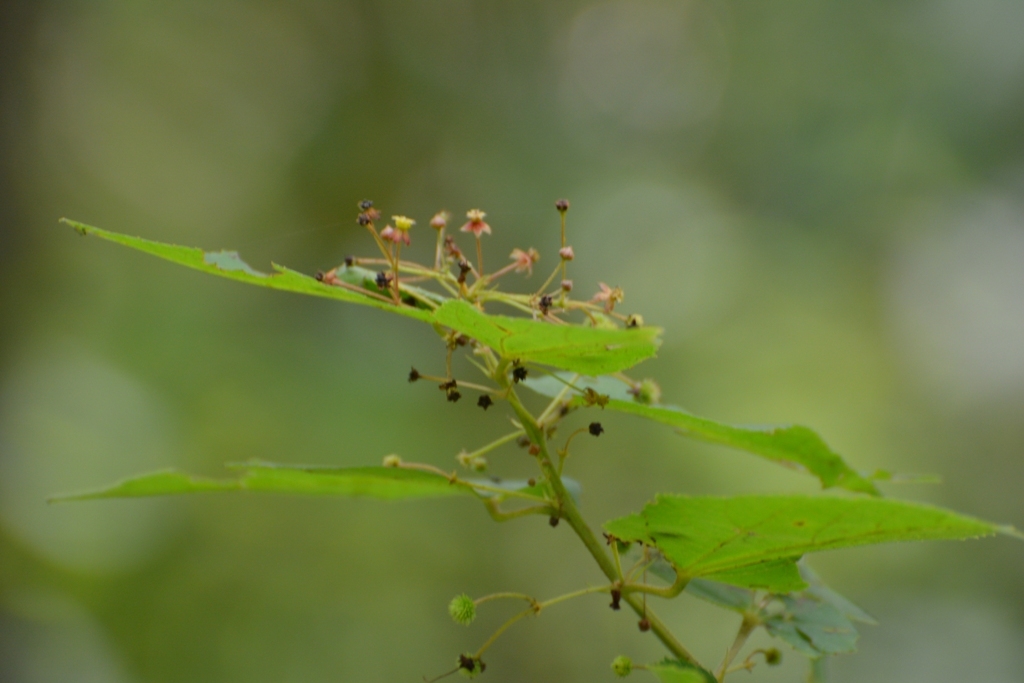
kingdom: Plantae
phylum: Tracheophyta
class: Magnoliopsida
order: Malvales
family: Malvaceae
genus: Ayenia
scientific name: Ayenia micrantha
